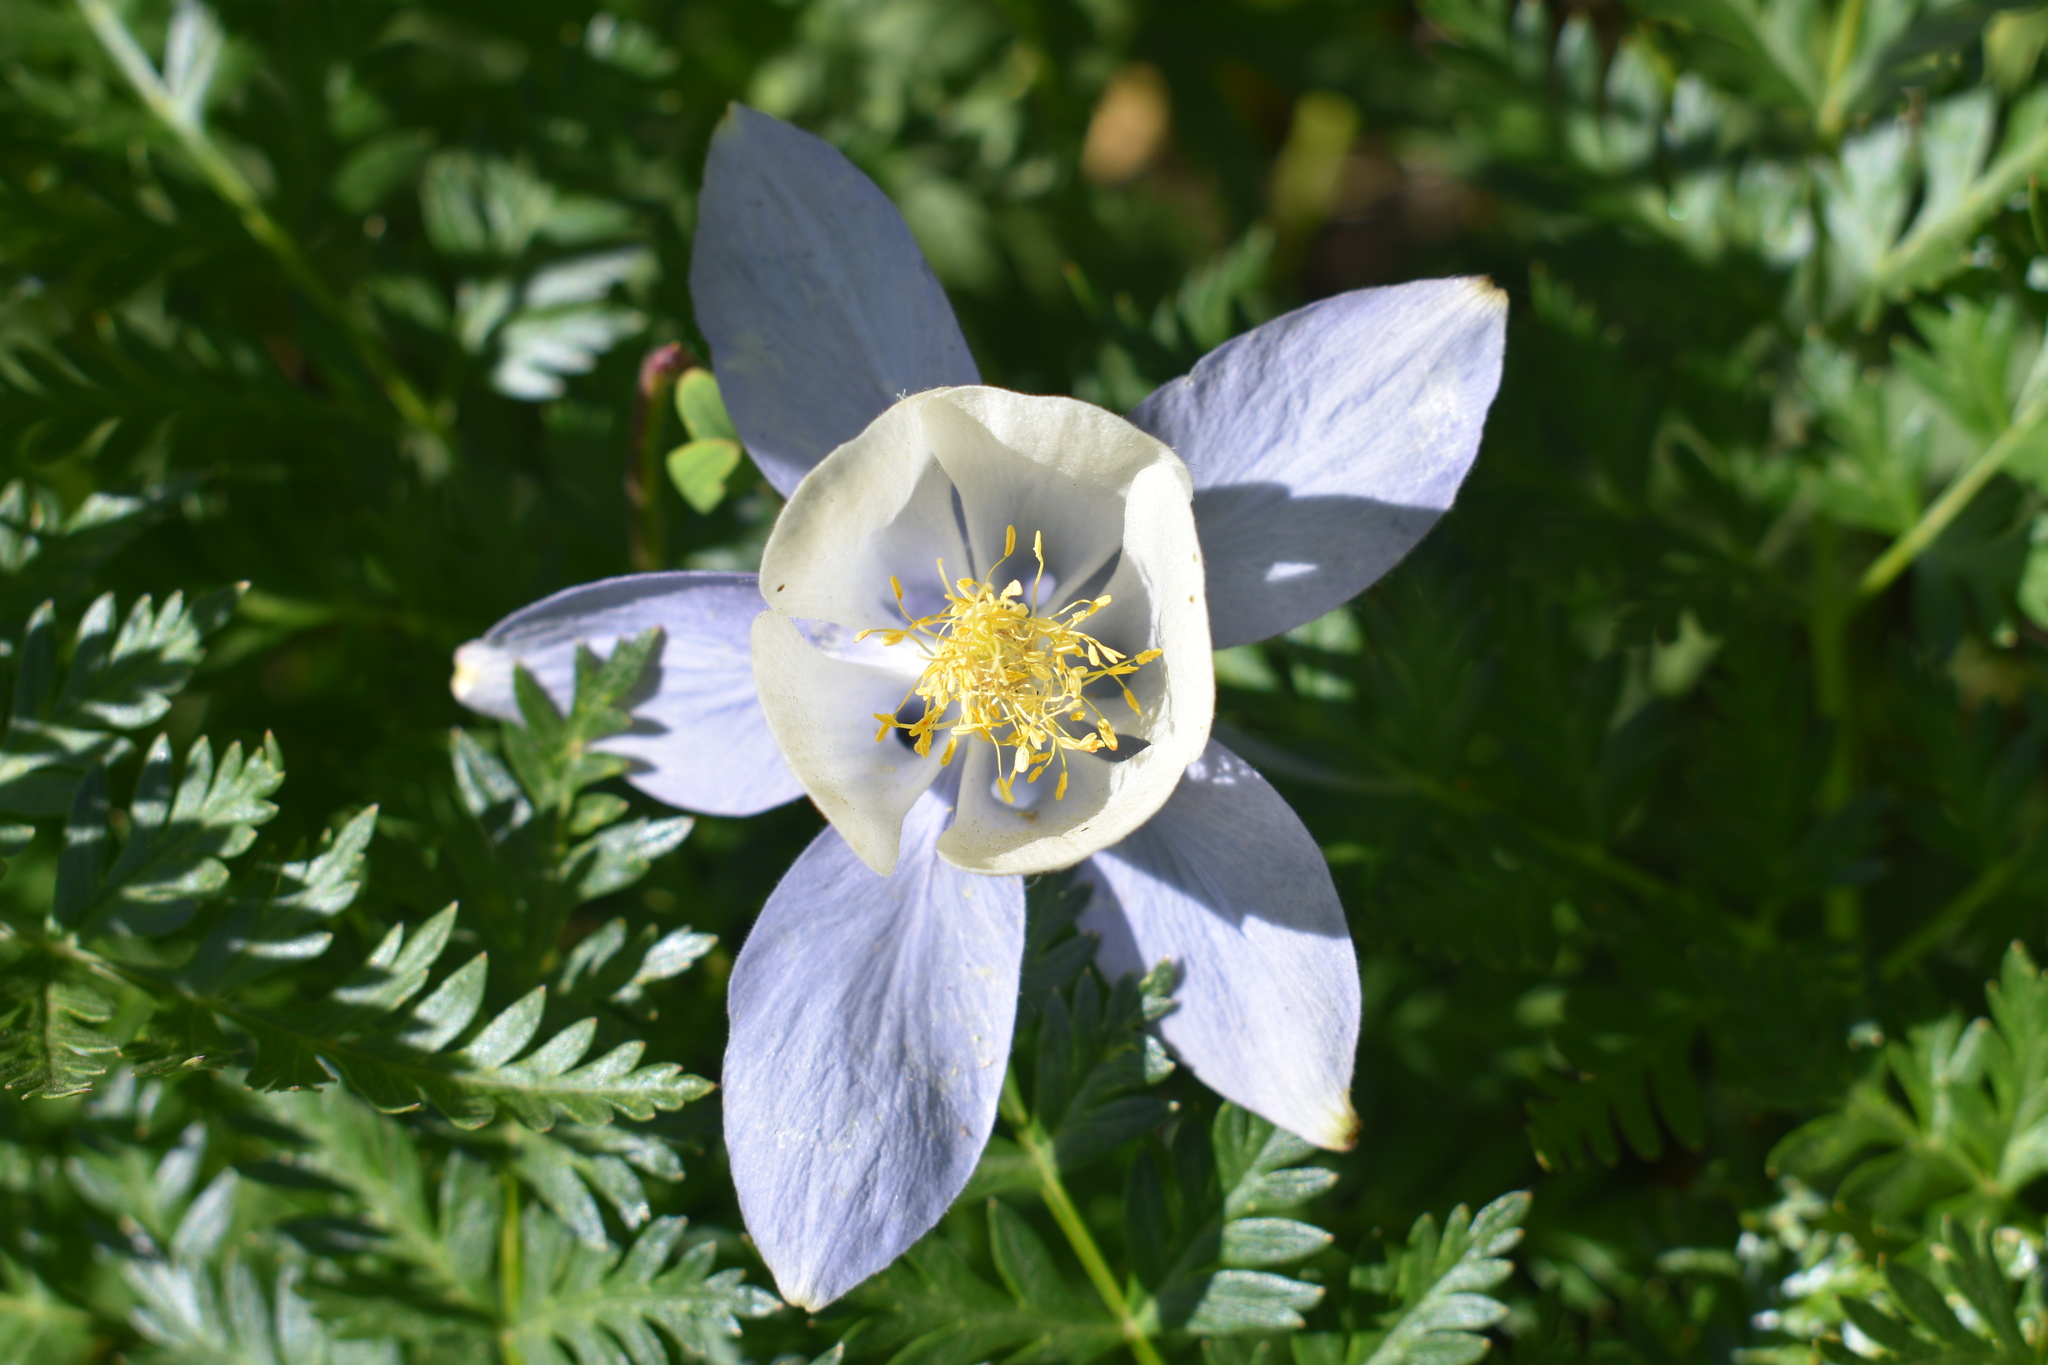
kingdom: Plantae
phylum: Tracheophyta
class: Magnoliopsida
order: Ranunculales
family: Ranunculaceae
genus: Aquilegia
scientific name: Aquilegia coerulea
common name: Rocky mountain columbine
